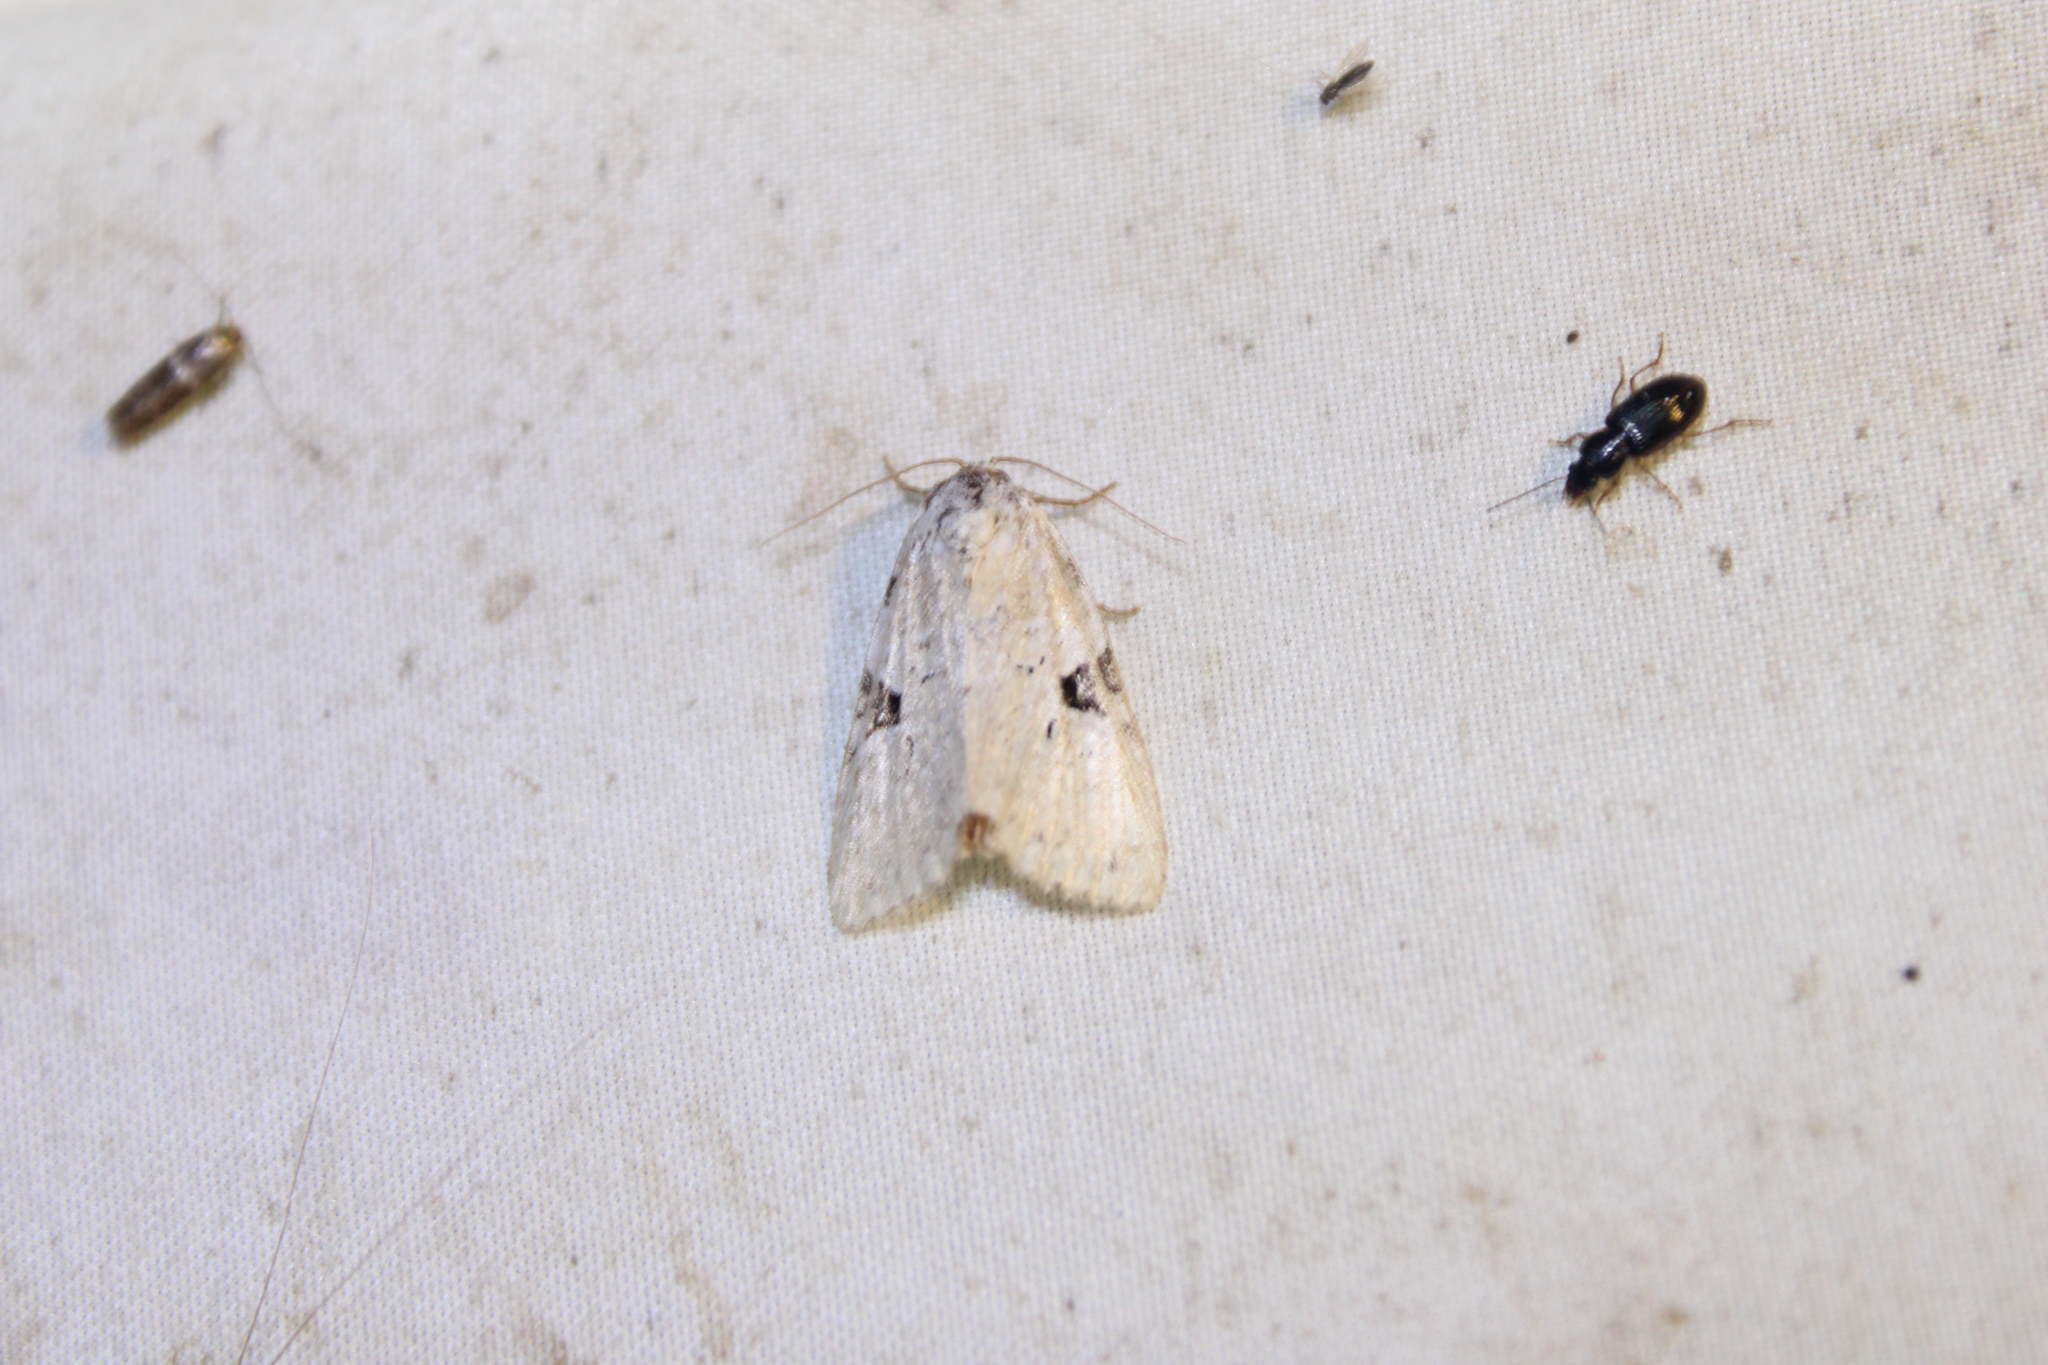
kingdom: Animalia
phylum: Arthropoda
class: Insecta
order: Lepidoptera
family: Noctuidae
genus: Leuconycta
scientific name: Leuconycta diphteroides
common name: Green leuconycta moth
